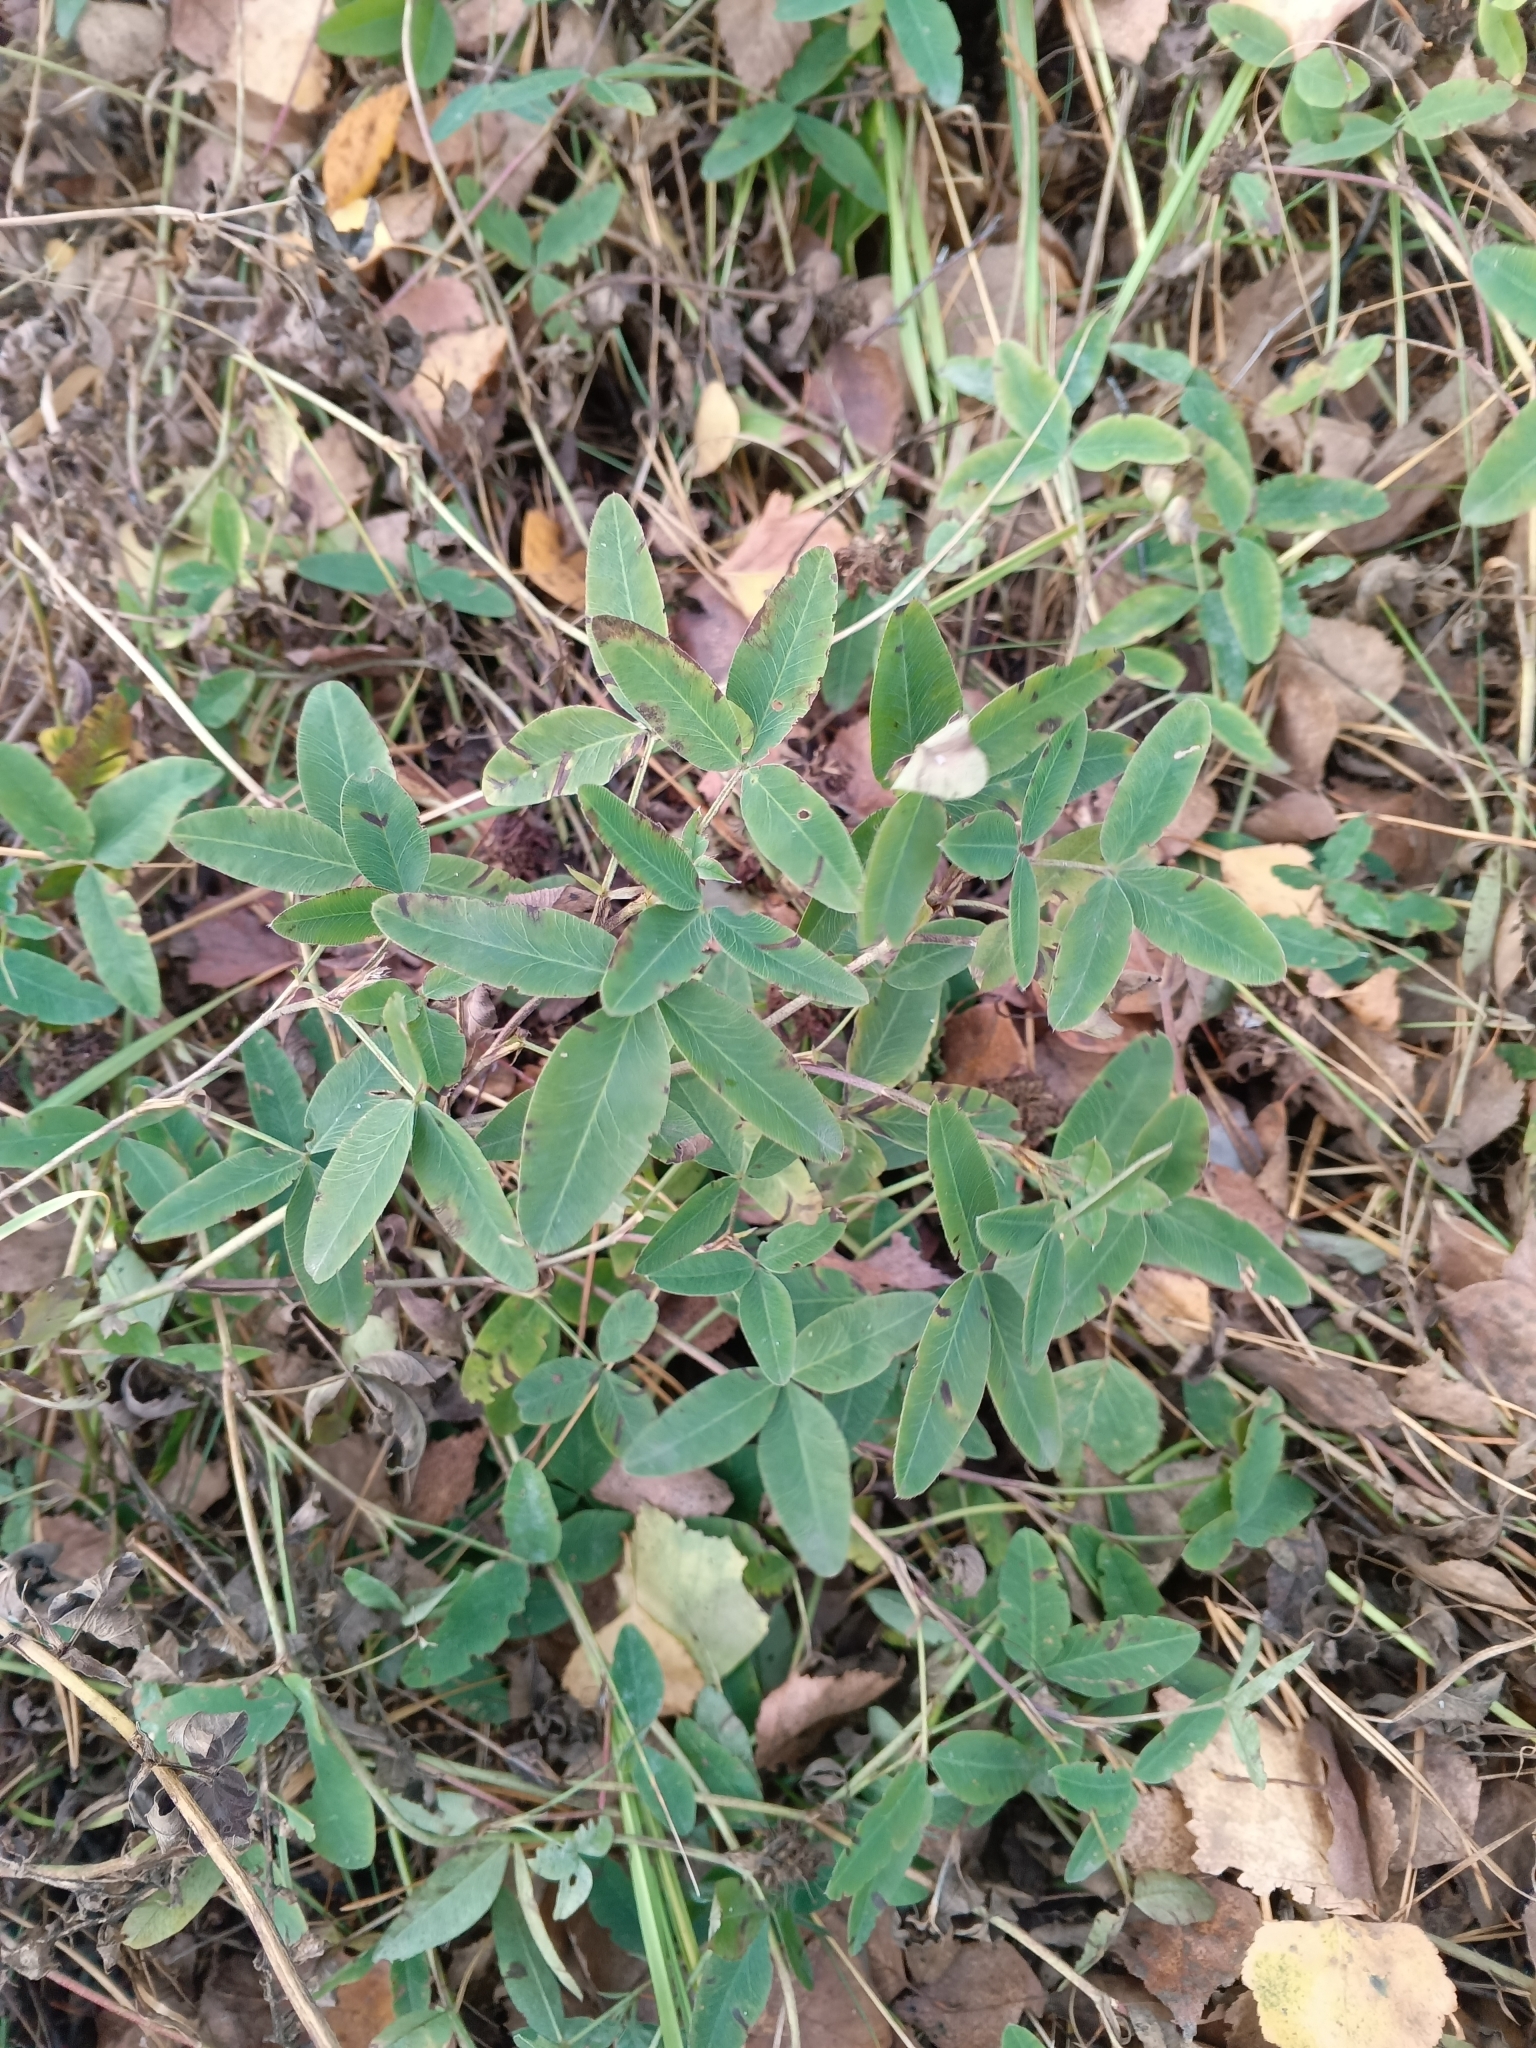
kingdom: Plantae
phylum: Tracheophyta
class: Magnoliopsida
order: Fabales
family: Fabaceae
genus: Trifolium
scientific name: Trifolium medium
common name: Zigzag clover
